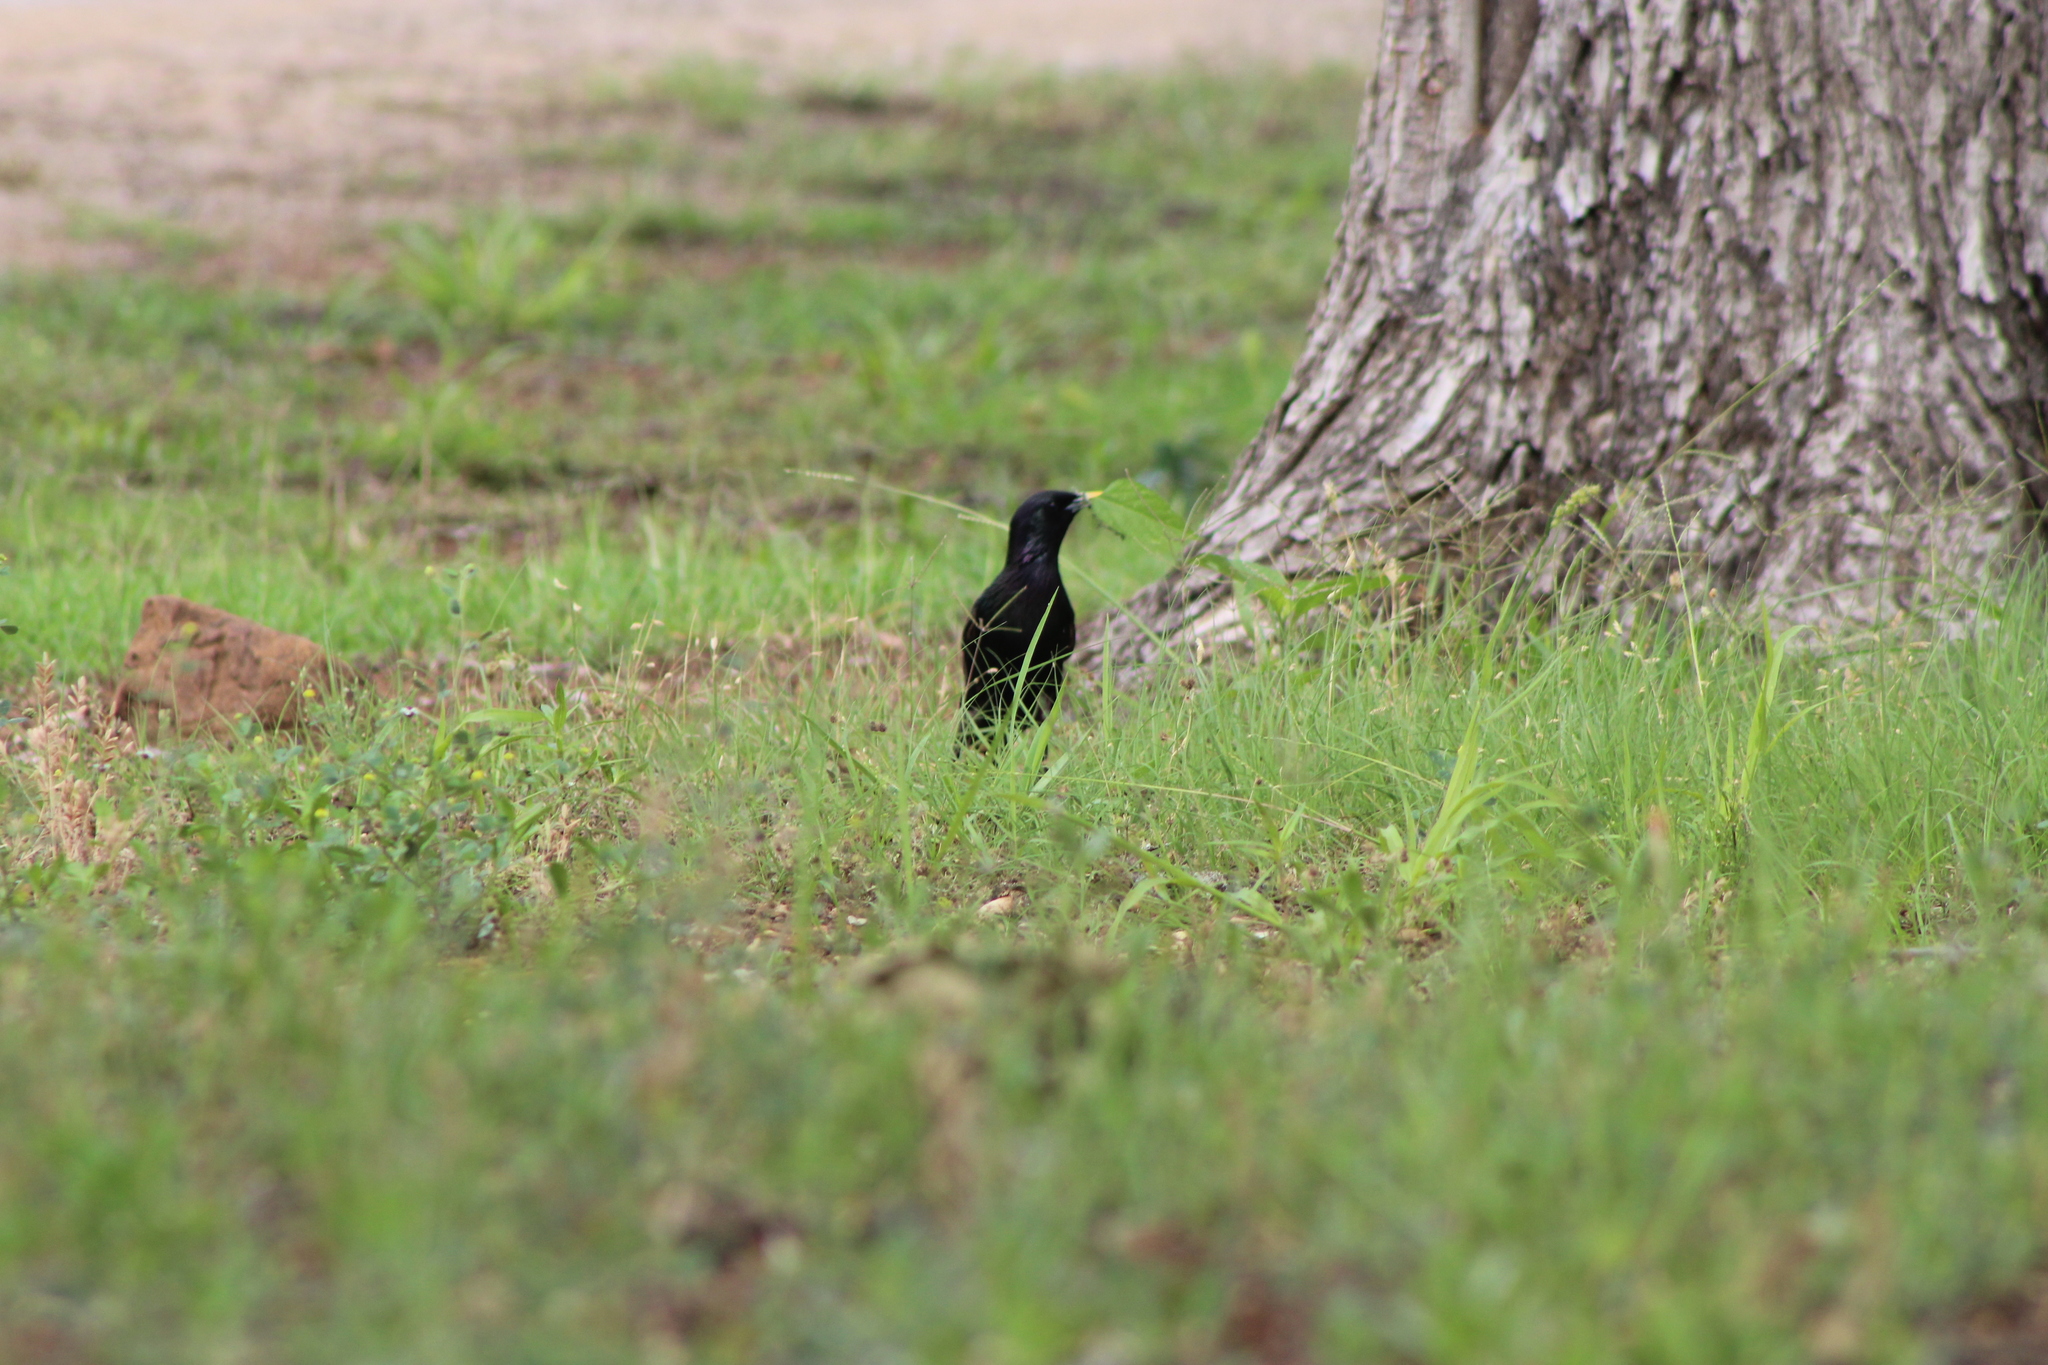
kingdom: Animalia
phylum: Chordata
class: Aves
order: Passeriformes
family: Sturnidae
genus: Sturnus
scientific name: Sturnus vulgaris
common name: Common starling
